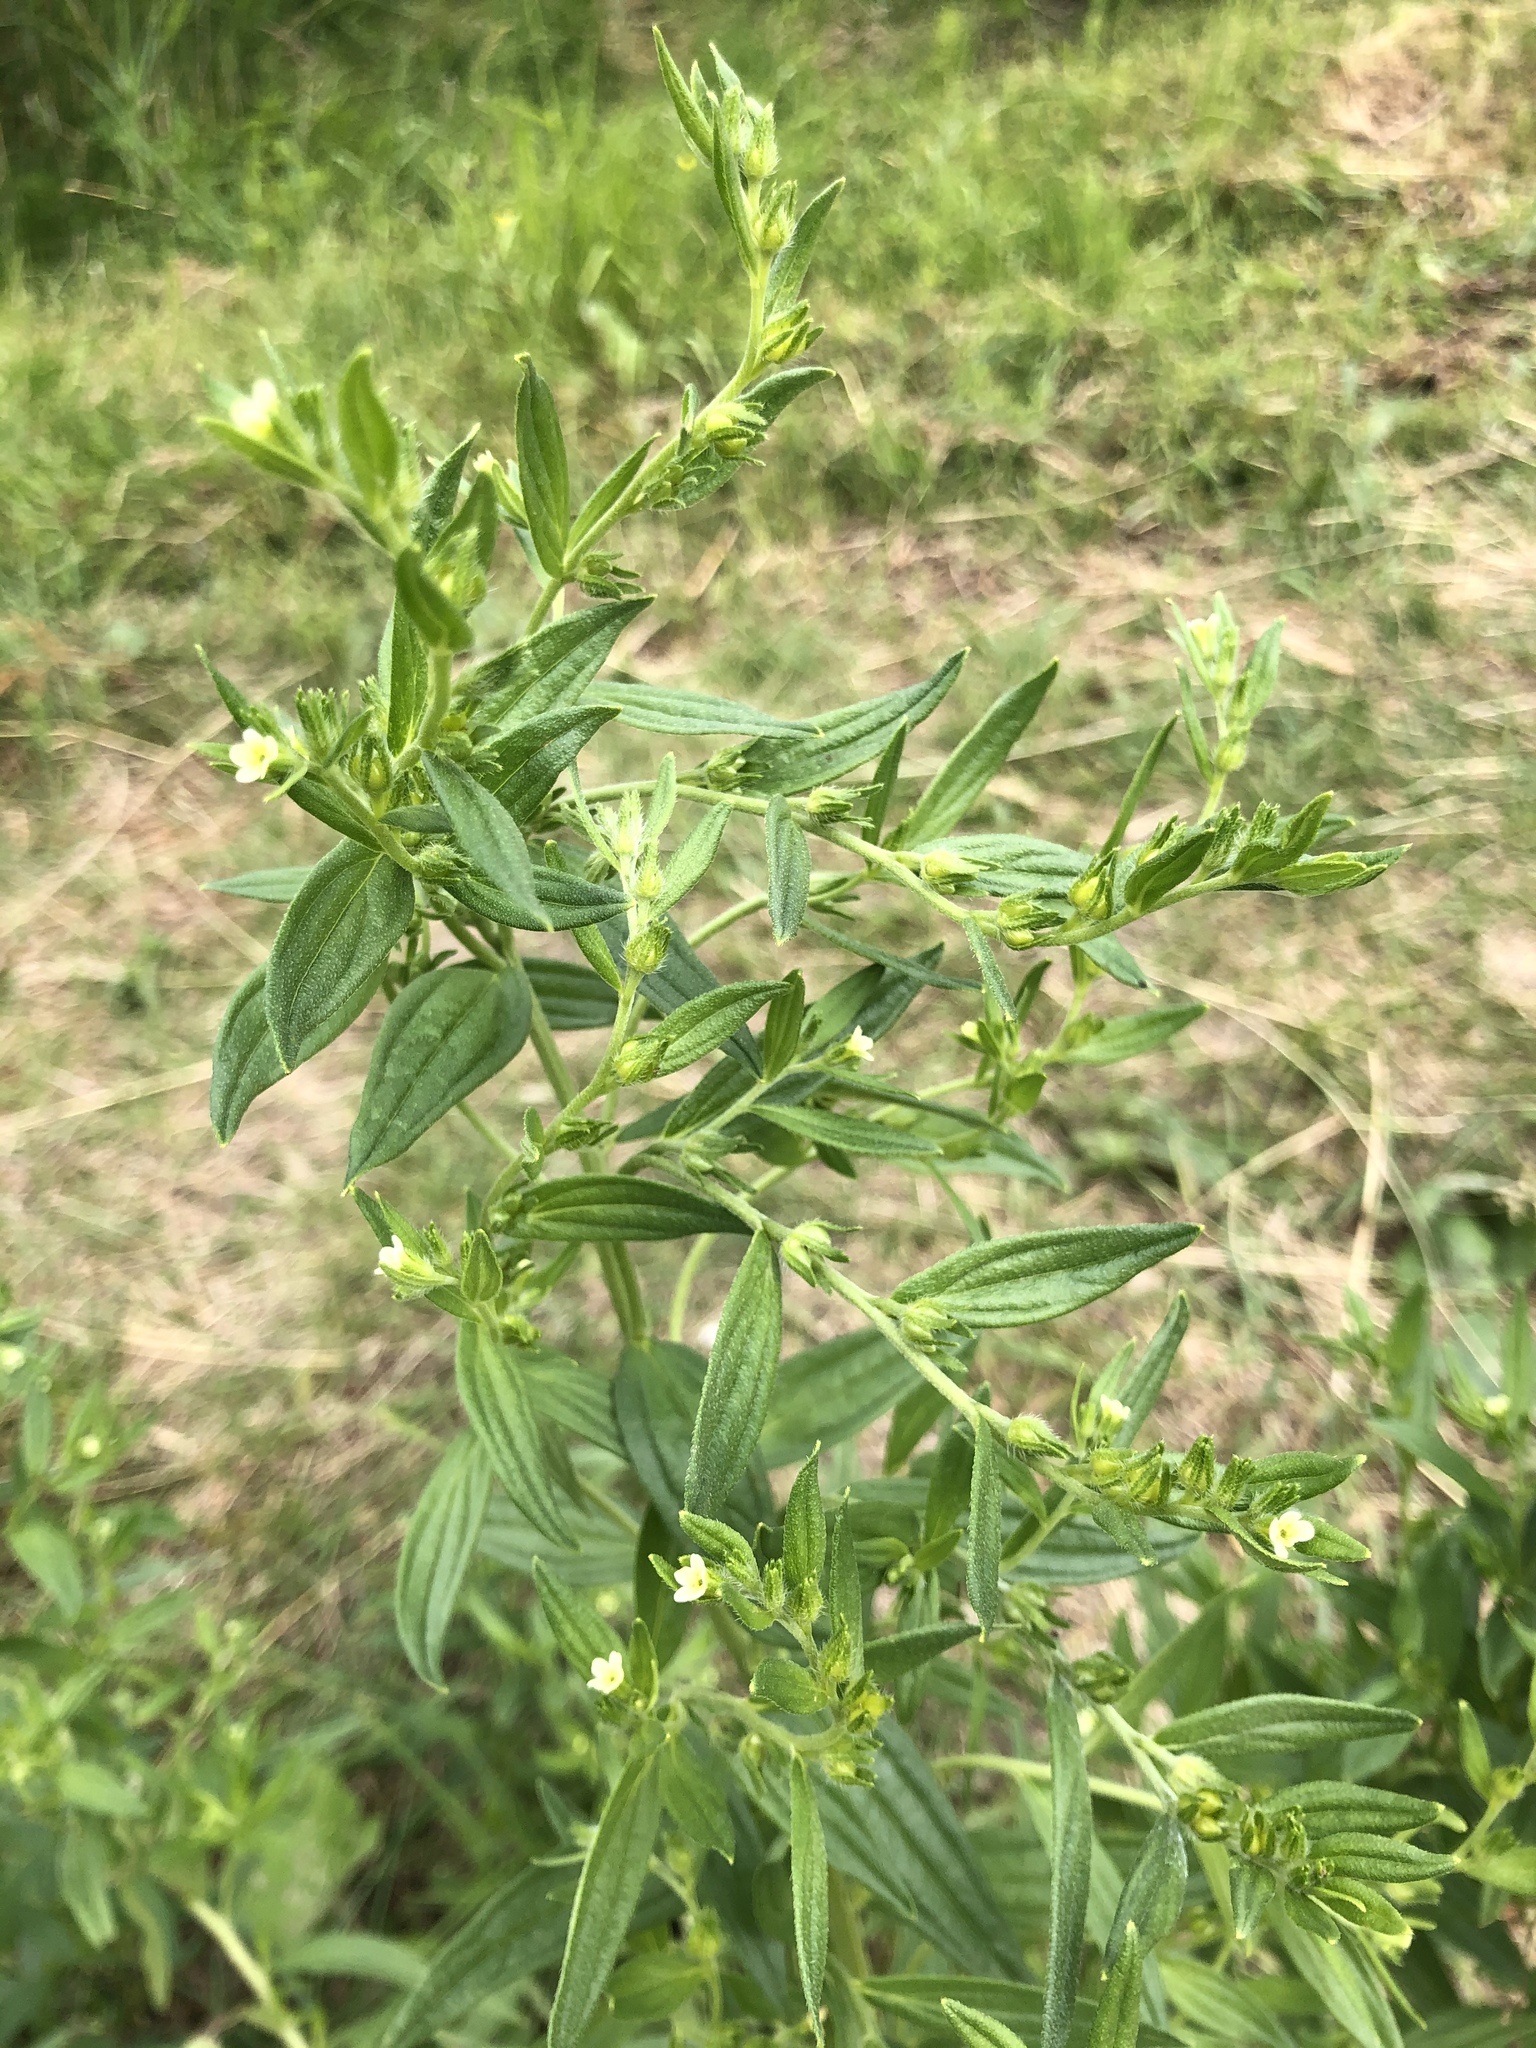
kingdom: Plantae
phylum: Tracheophyta
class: Magnoliopsida
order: Boraginales
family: Boraginaceae
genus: Lithospermum
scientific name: Lithospermum officinale
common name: Common gromwell
